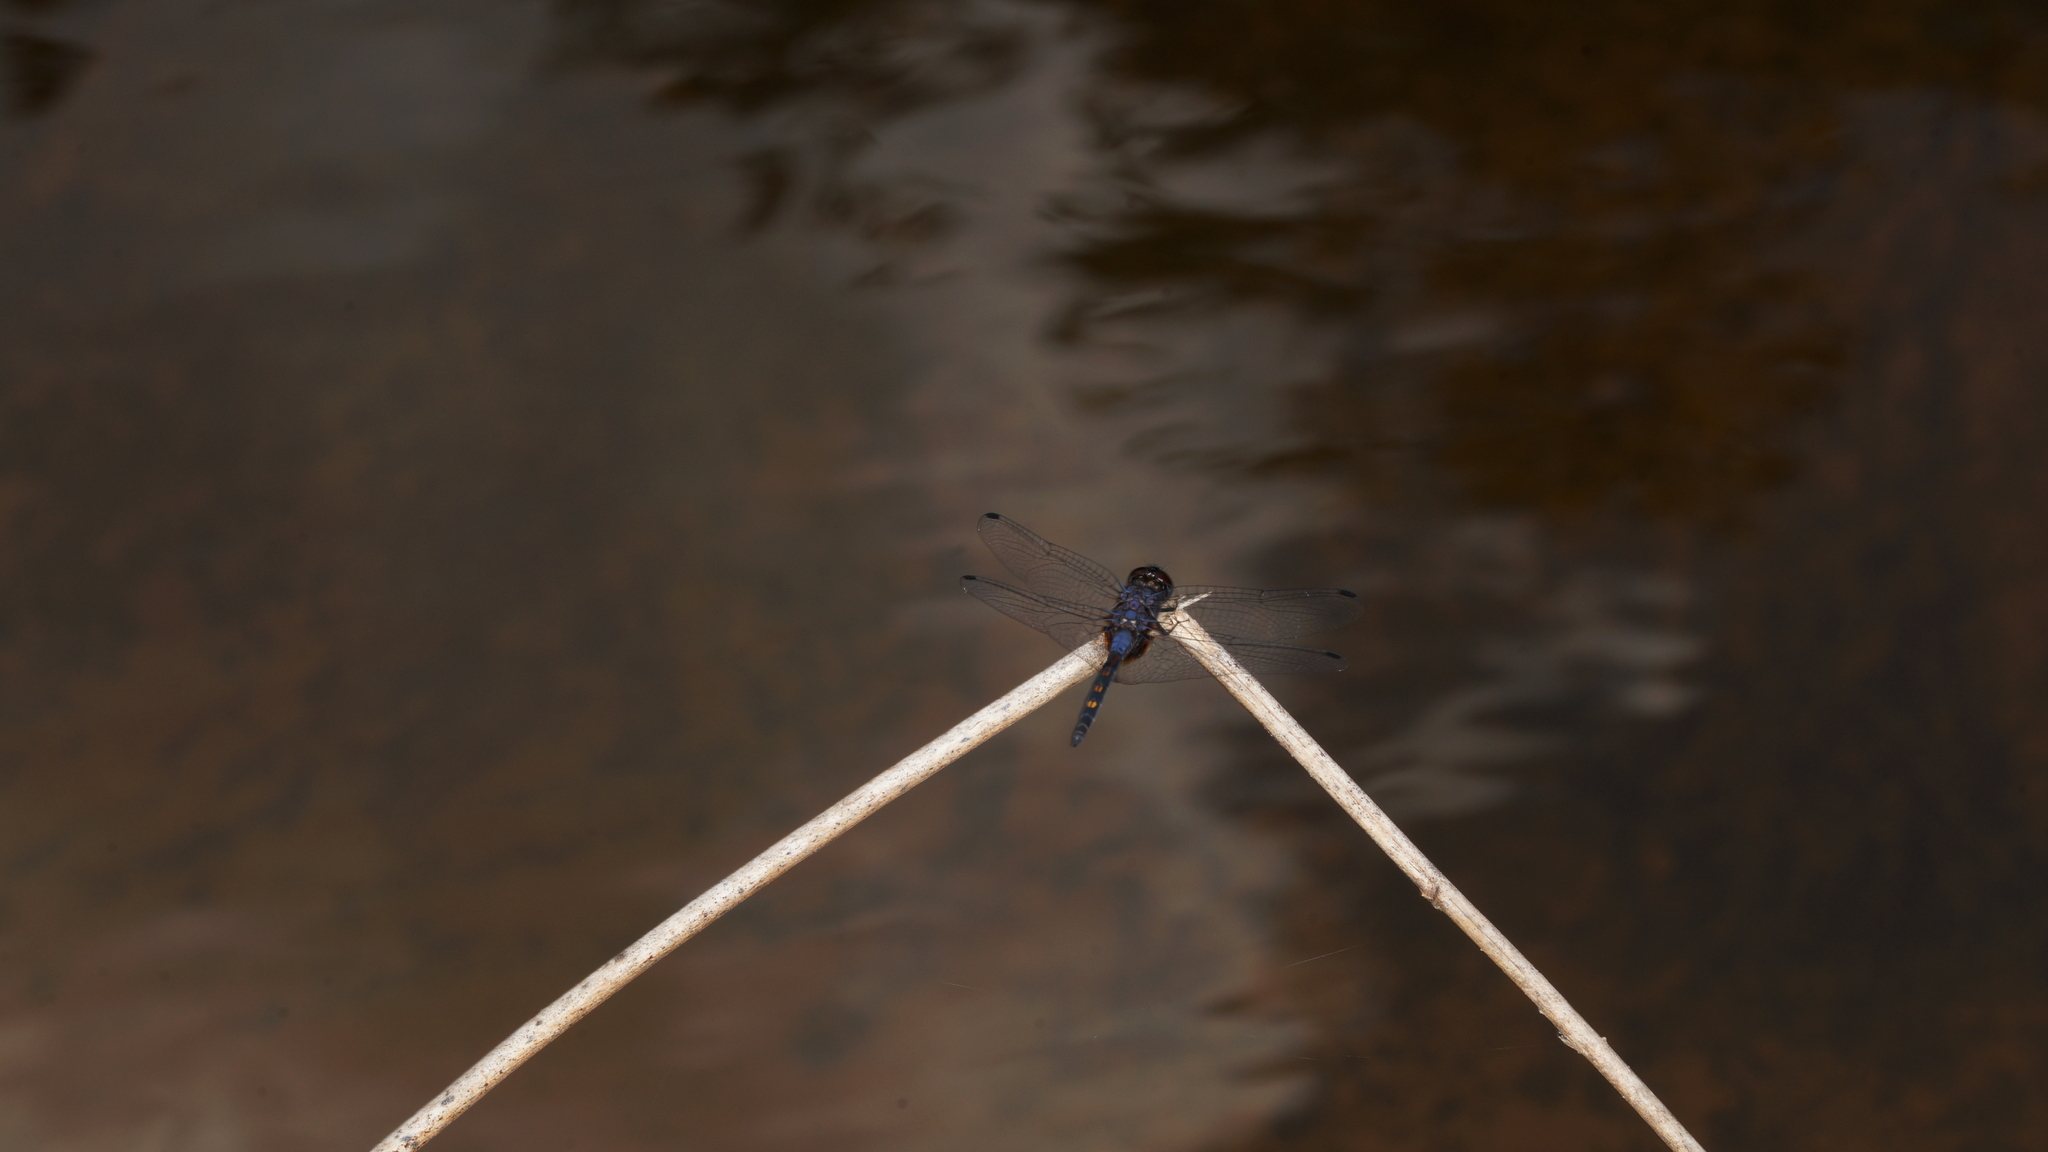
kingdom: Animalia
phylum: Arthropoda
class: Insecta
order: Odonata
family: Libellulidae
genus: Trithemis
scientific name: Trithemis festiva
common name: Indigo dropwing
